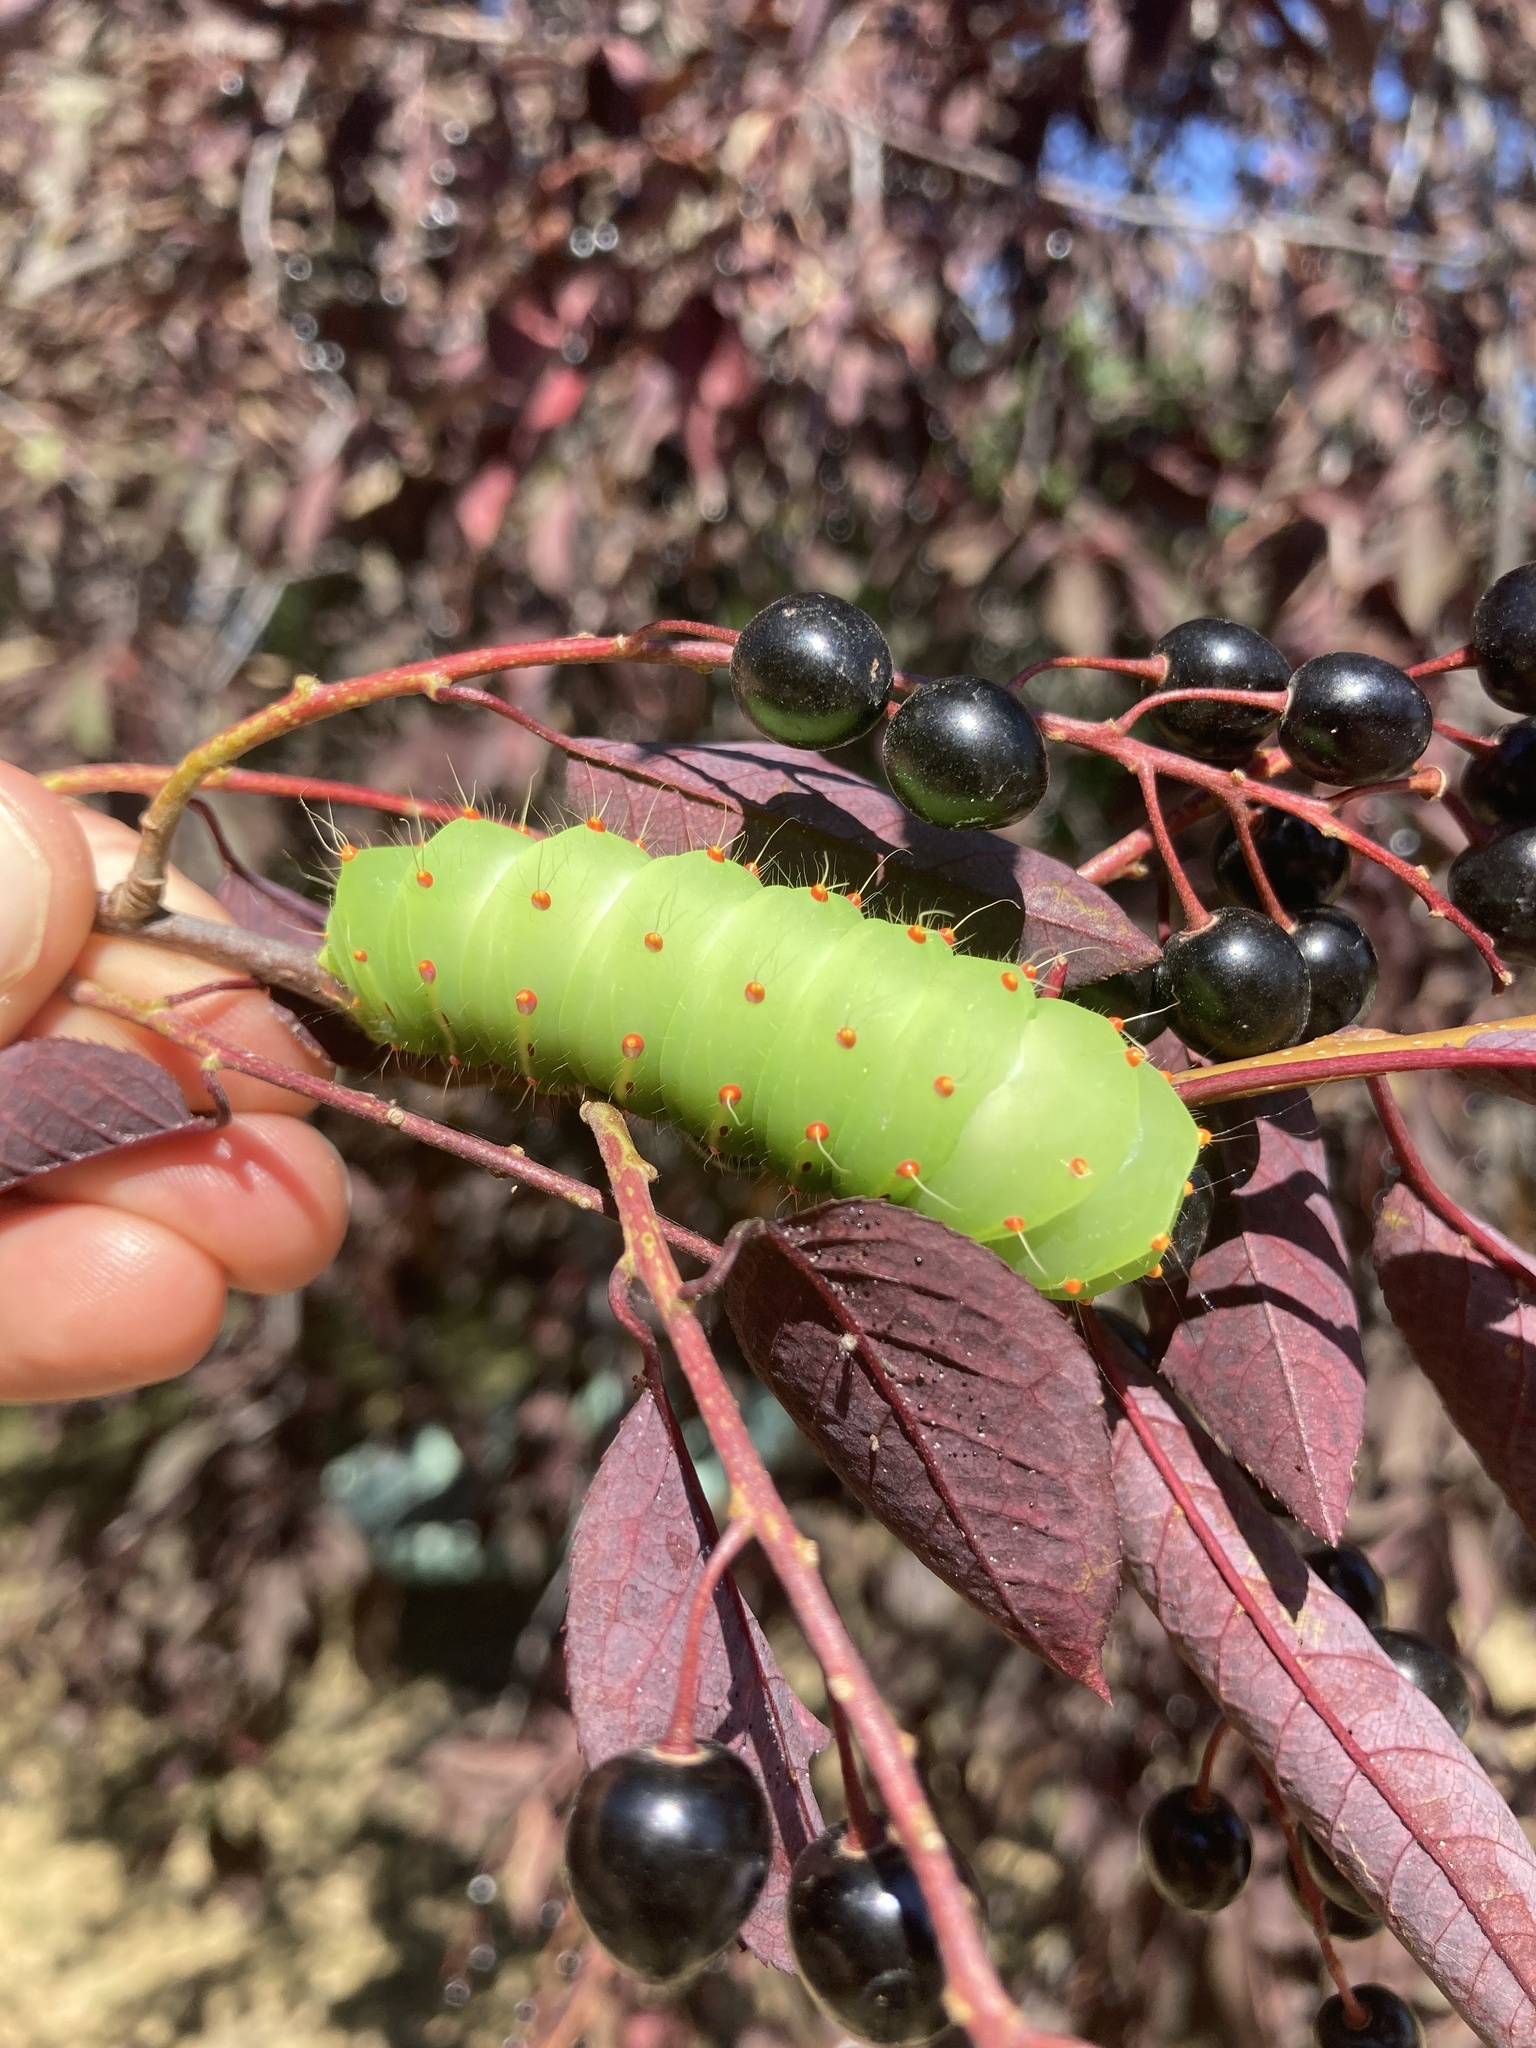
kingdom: Animalia
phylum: Arthropoda
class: Insecta
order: Lepidoptera
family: Saturniidae
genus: Antheraea
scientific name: Antheraea polyphemus
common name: Polyphemus moth
